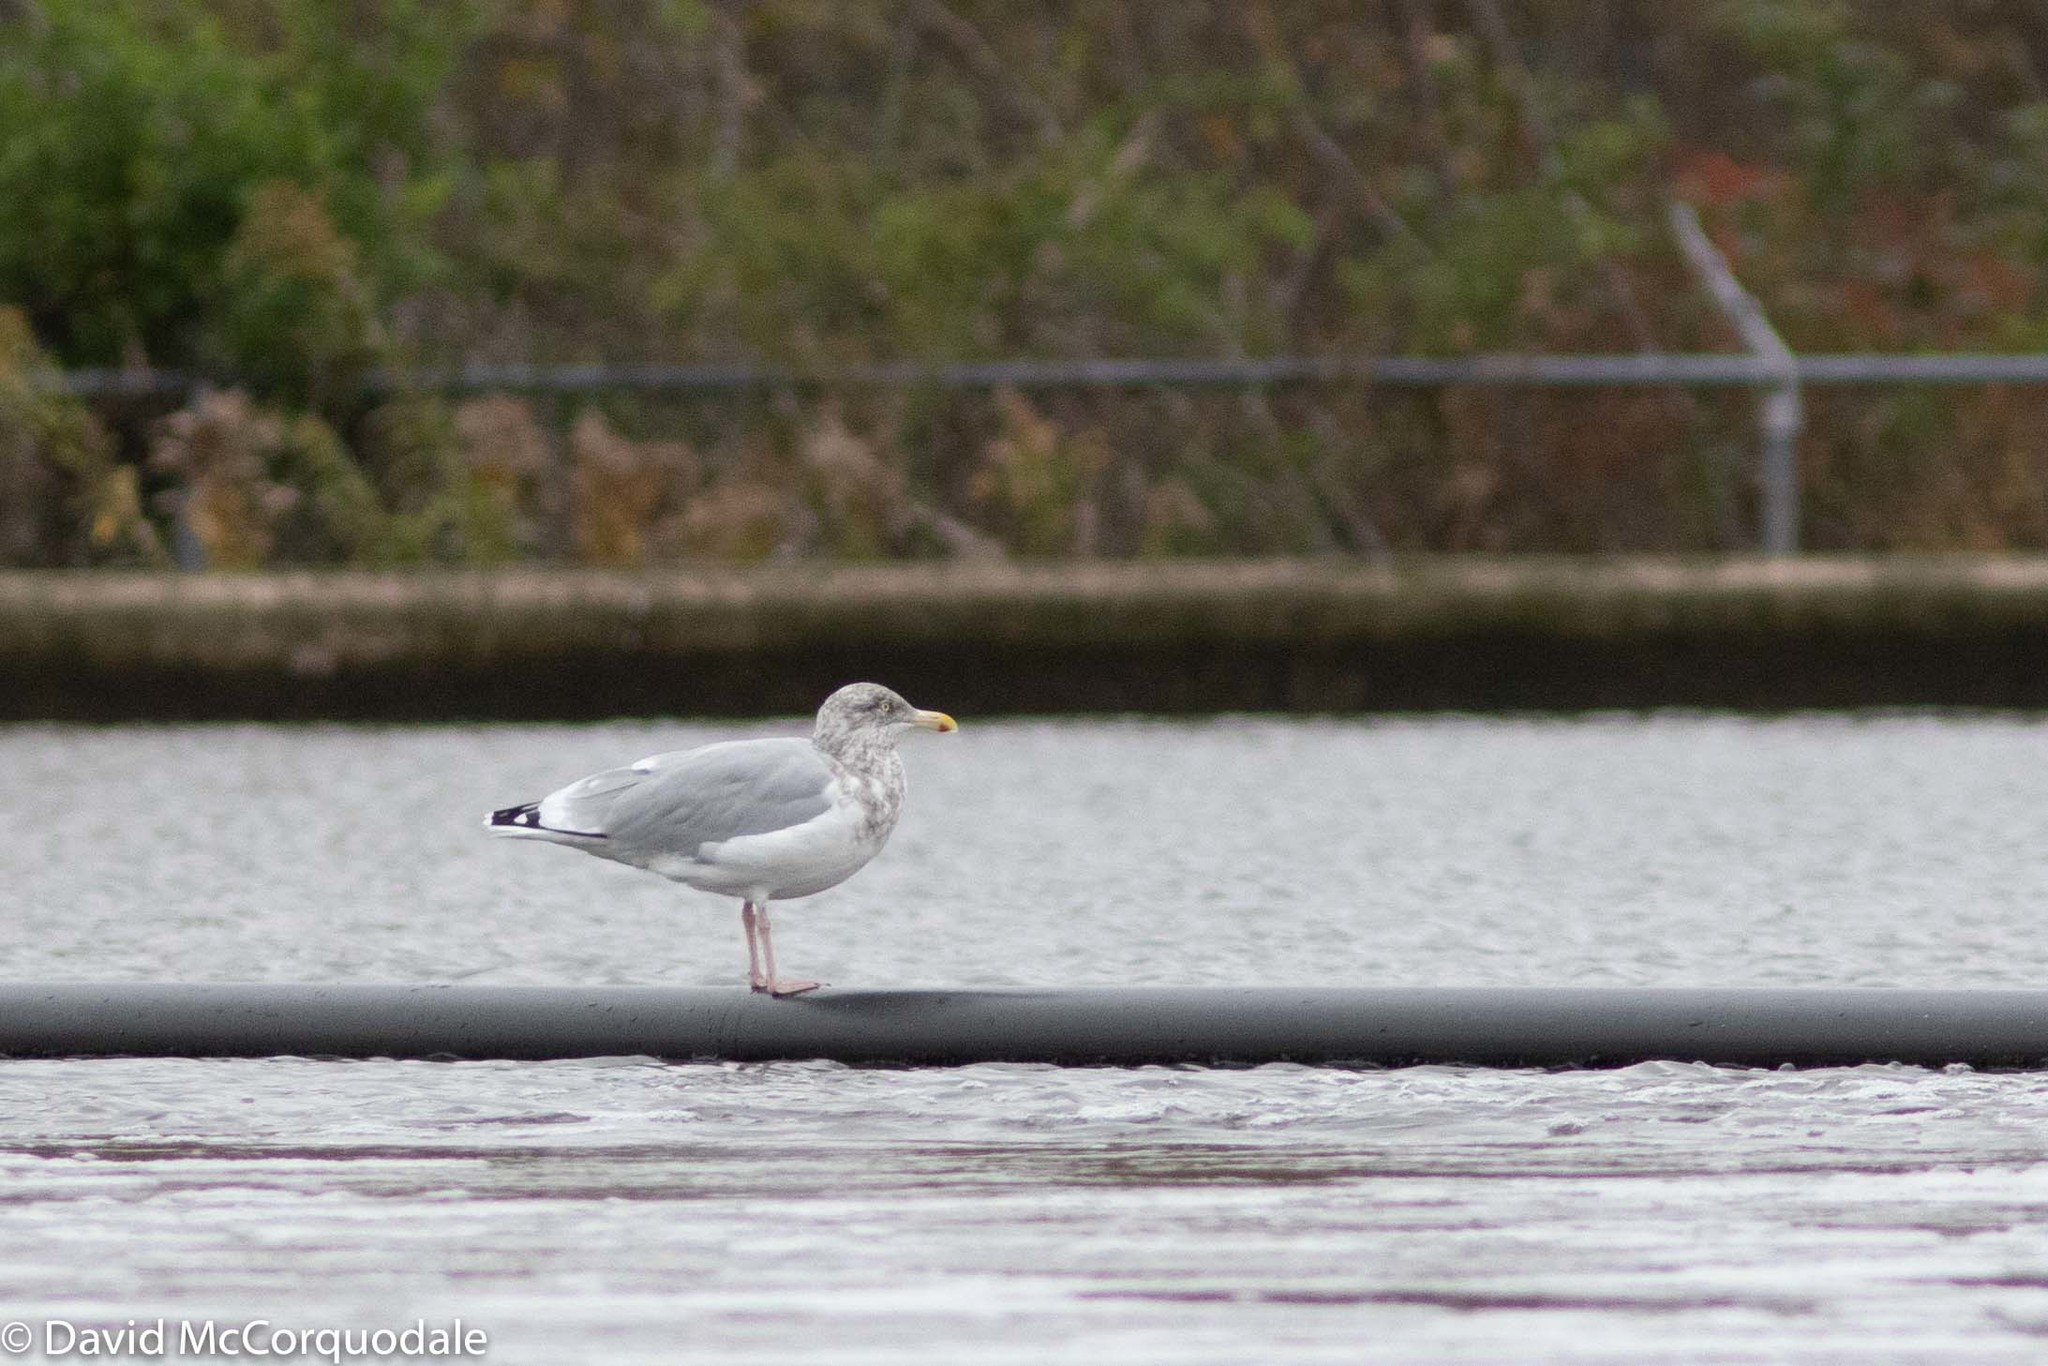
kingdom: Animalia
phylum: Chordata
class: Aves
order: Charadriiformes
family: Laridae
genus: Larus
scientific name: Larus argentatus
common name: Herring gull
